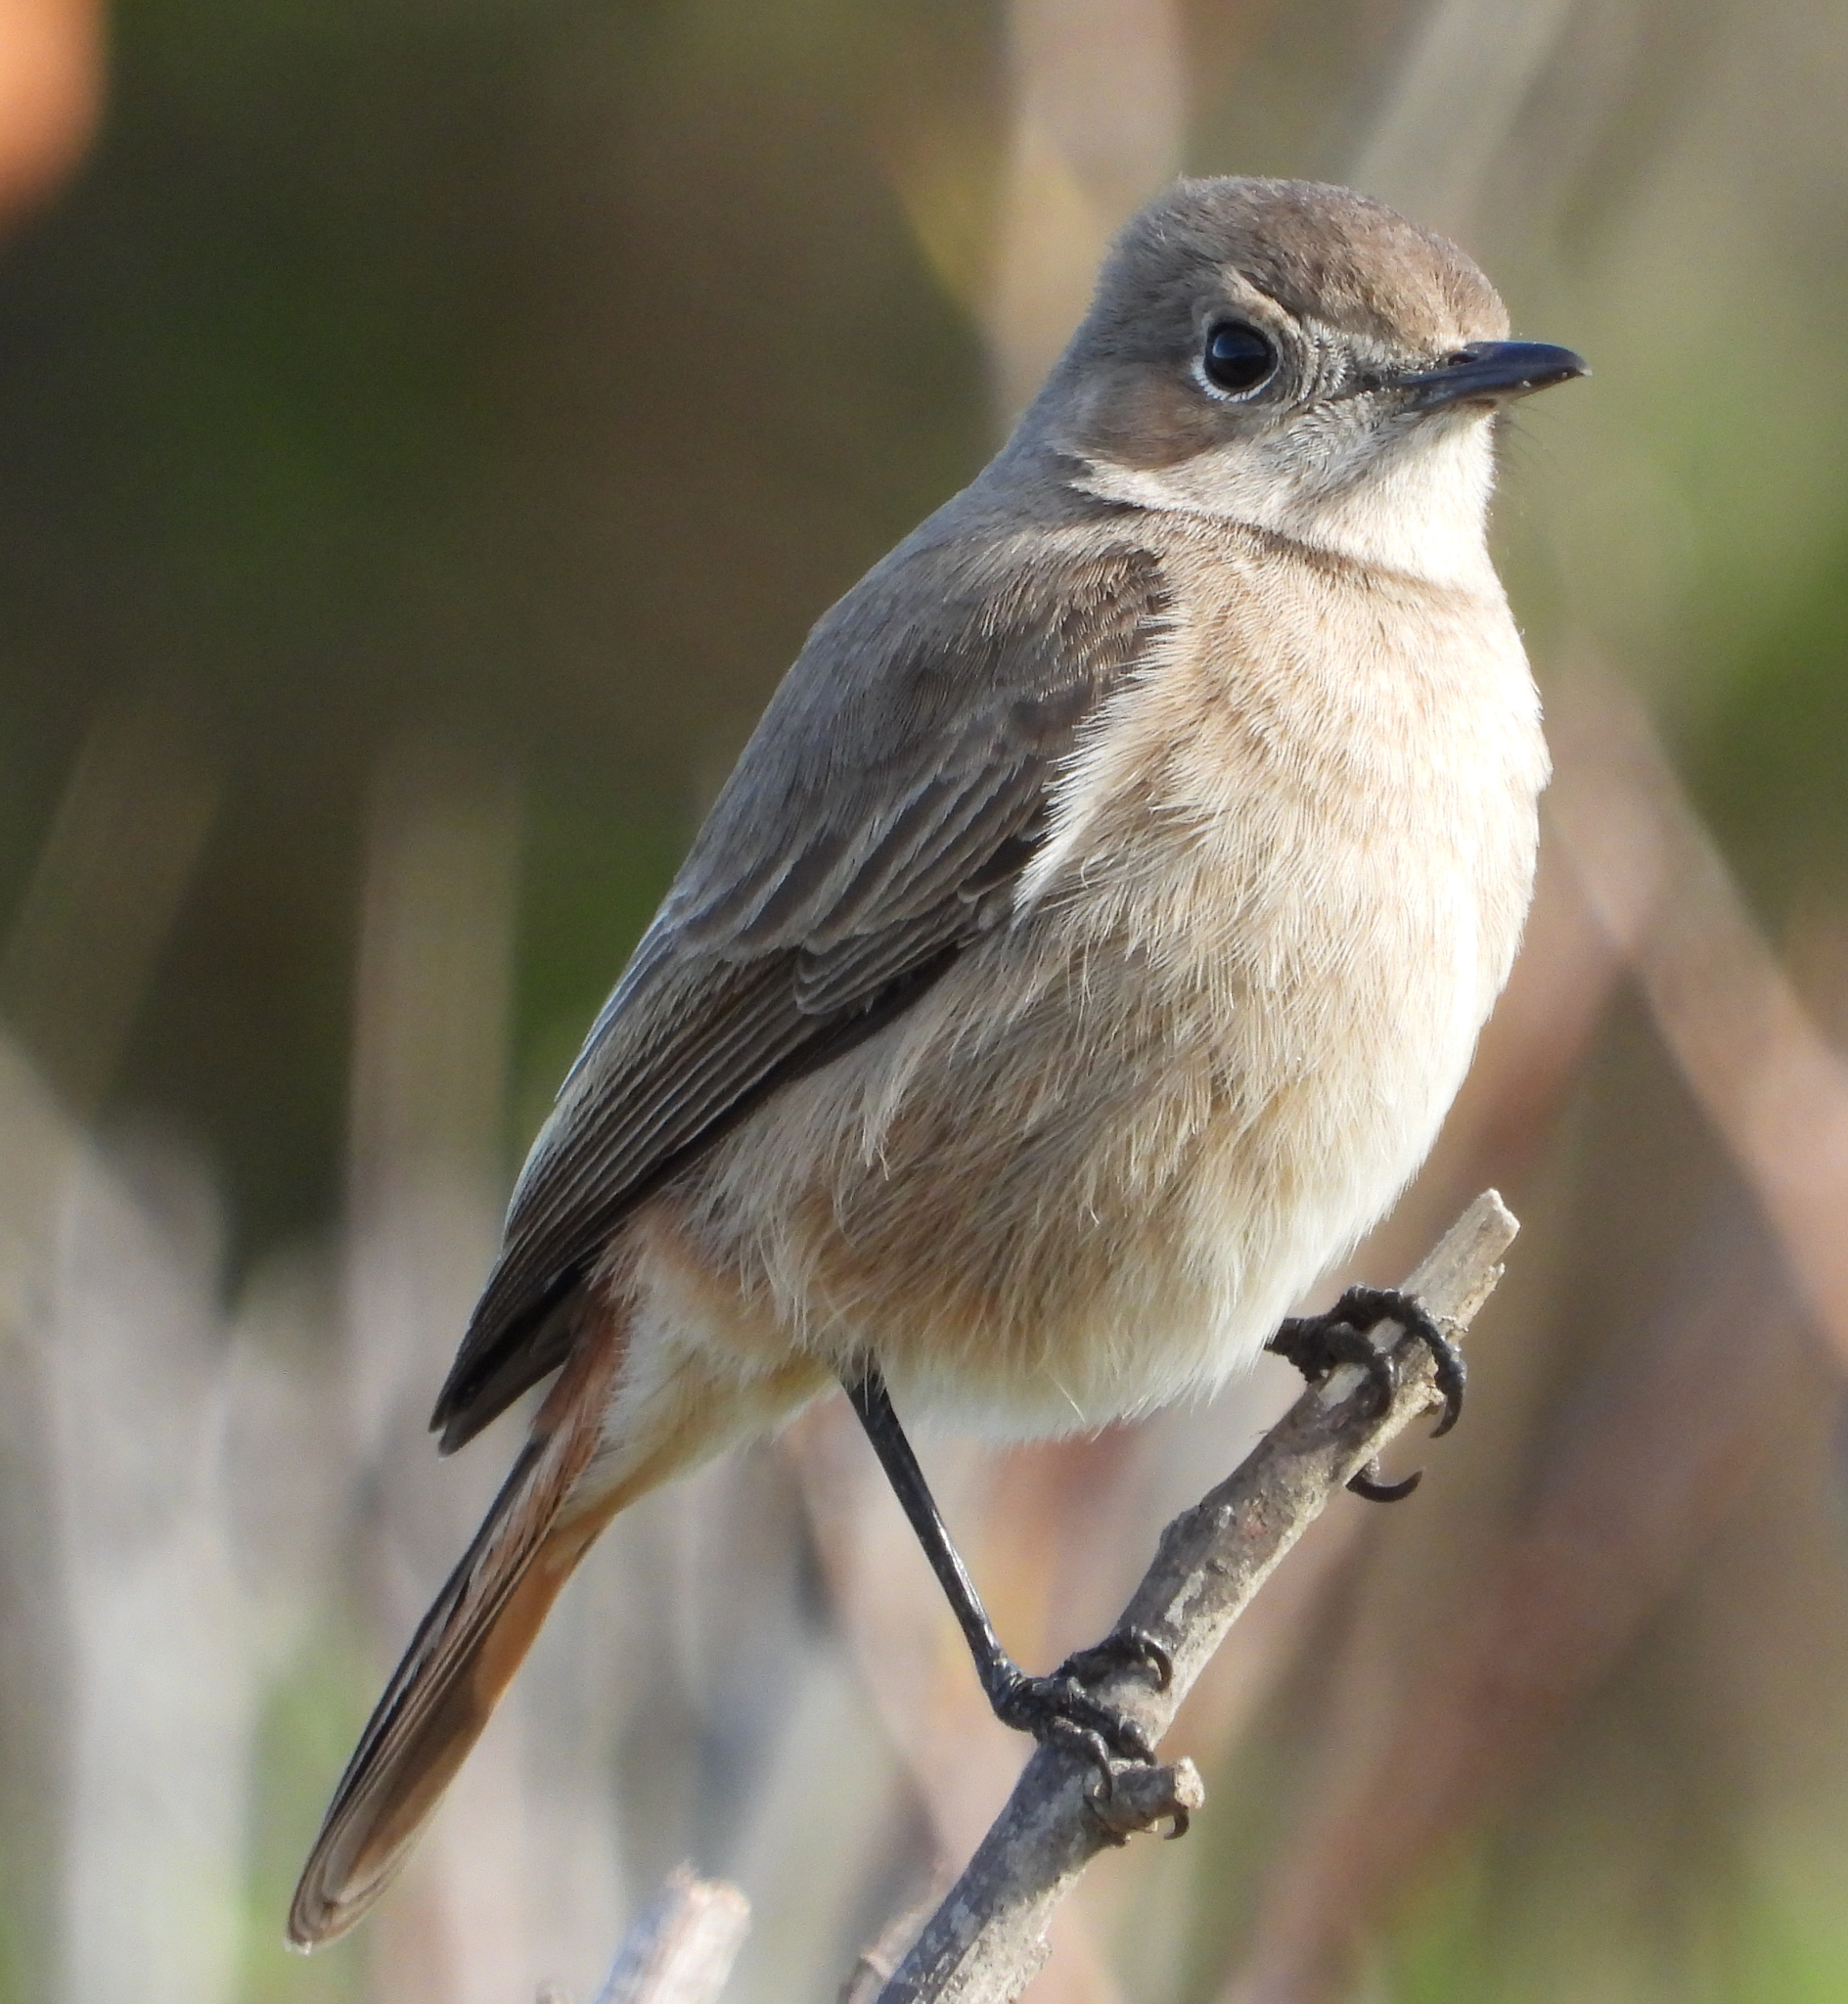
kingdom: Animalia
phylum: Chordata
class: Aves
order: Passeriformes
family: Muscicapidae
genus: Oenanthe
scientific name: Oenanthe familiaris
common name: Familiar chat
